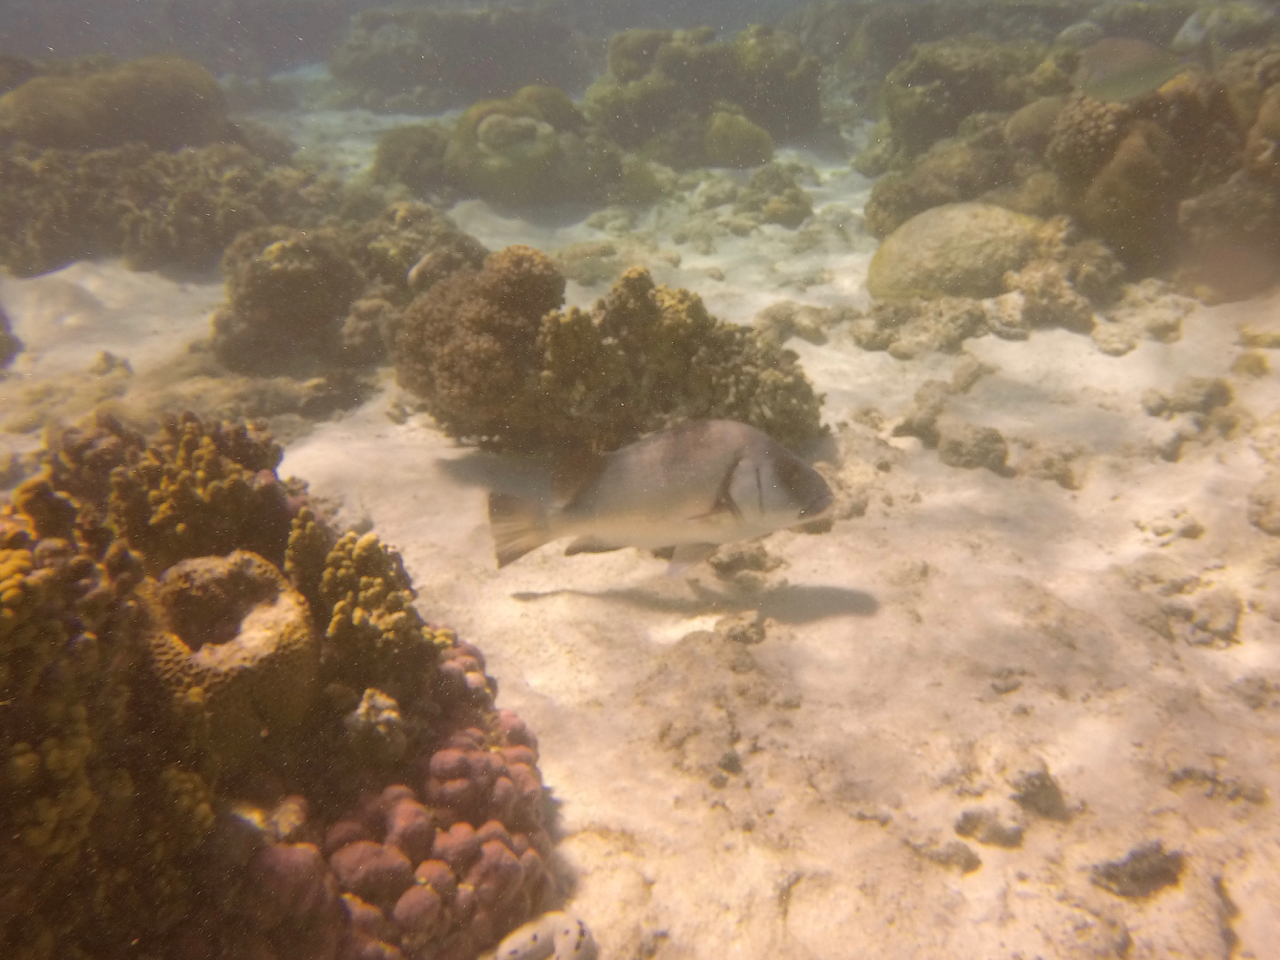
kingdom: Animalia
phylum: Chordata
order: Perciformes
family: Haemulidae
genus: Plectorhinchus
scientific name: Plectorhinchus gibbosus
